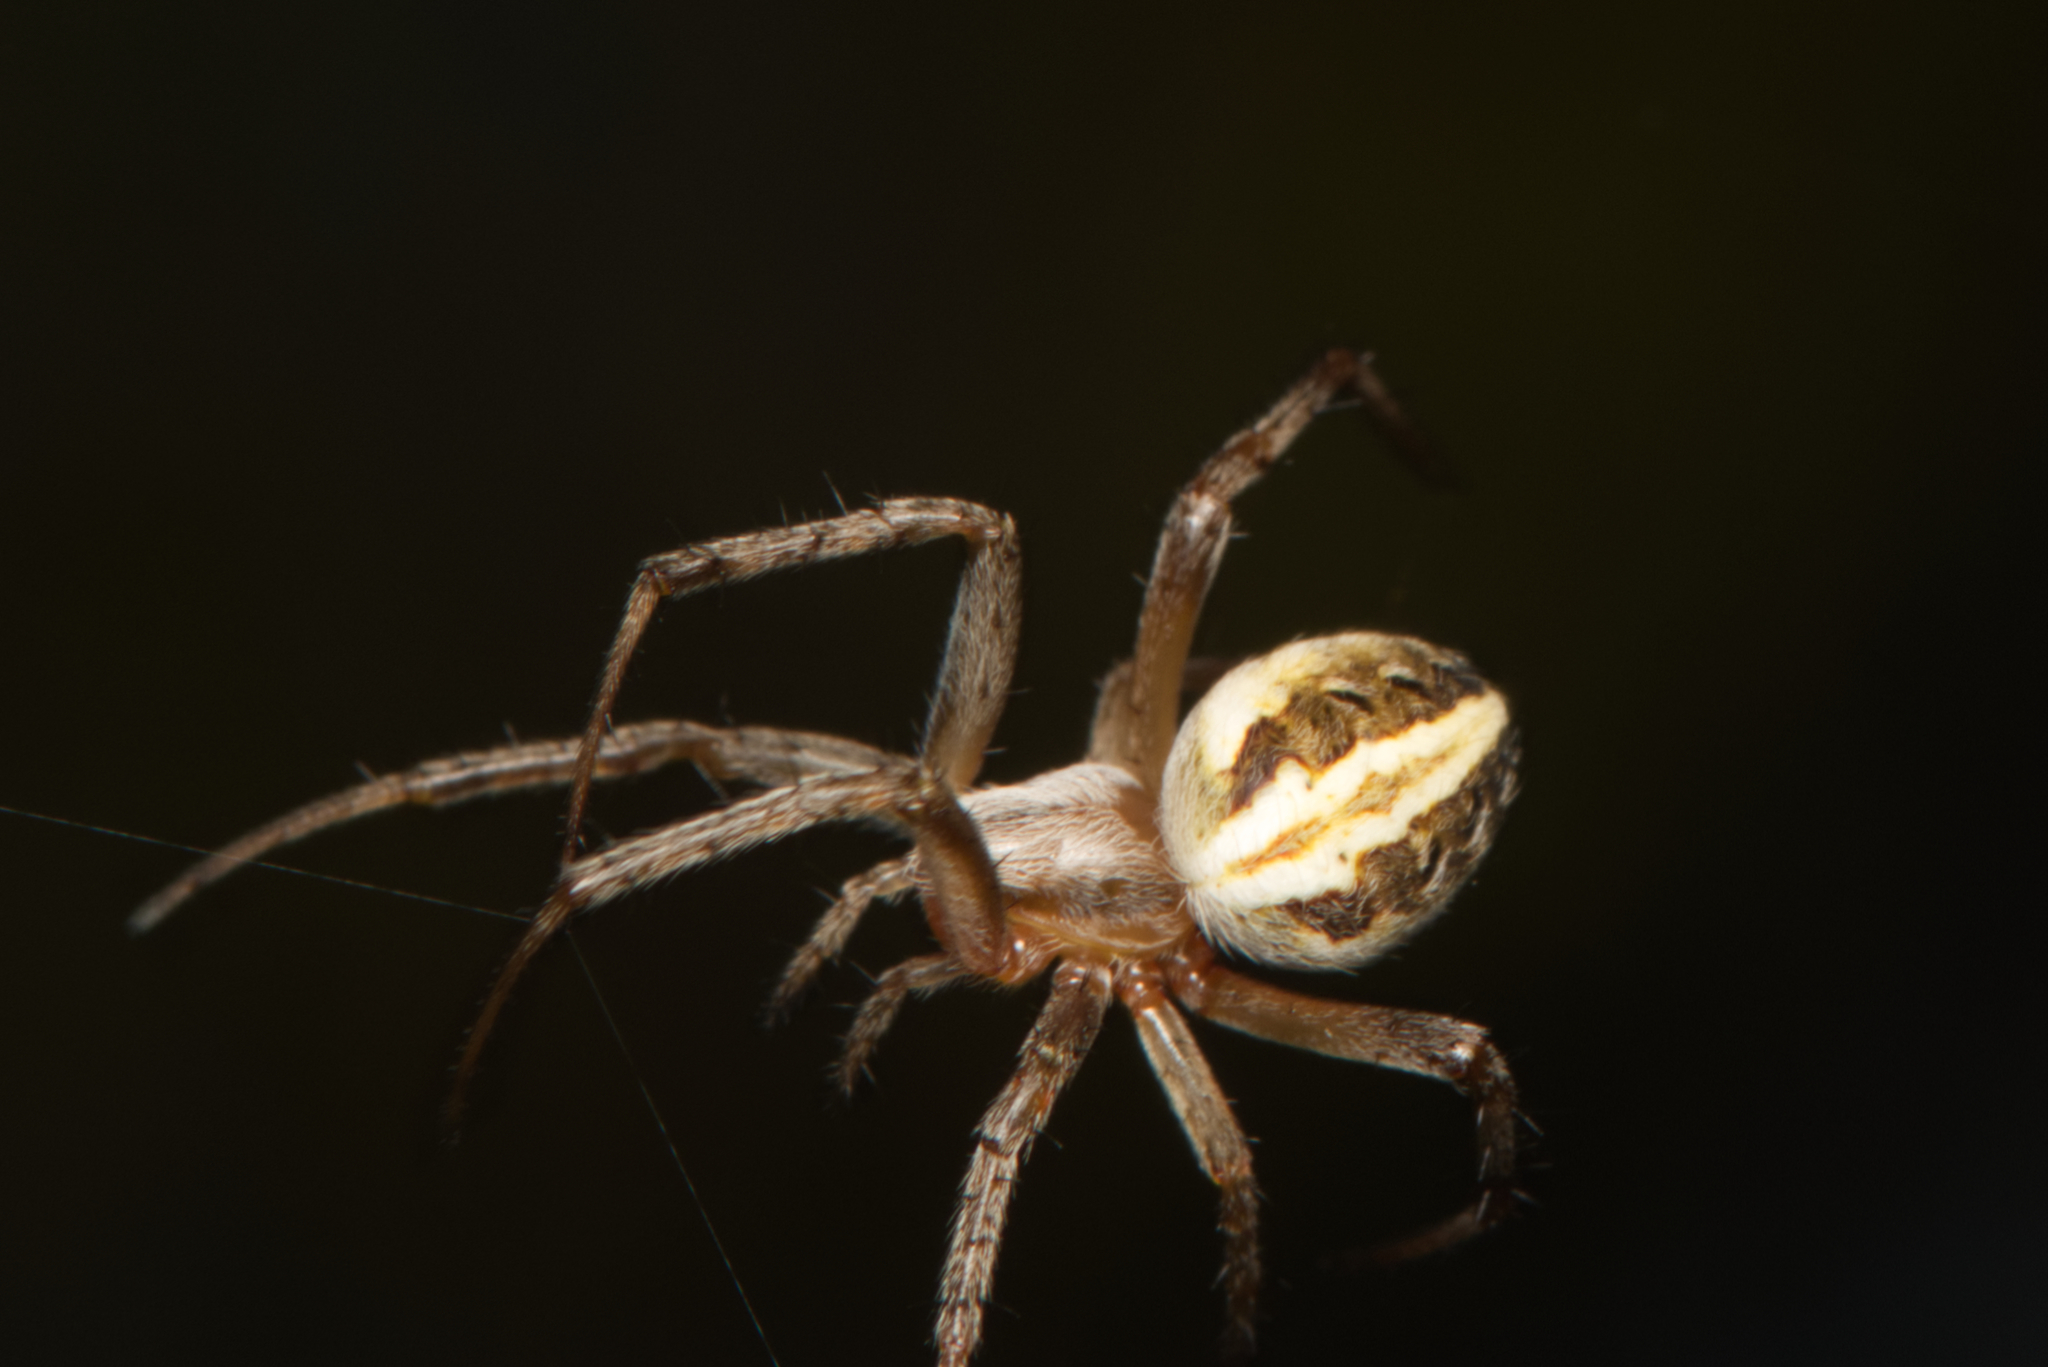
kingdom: Animalia
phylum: Arthropoda
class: Arachnida
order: Araneae
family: Araneidae
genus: Neoscona
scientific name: Neoscona theisi
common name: Spider
